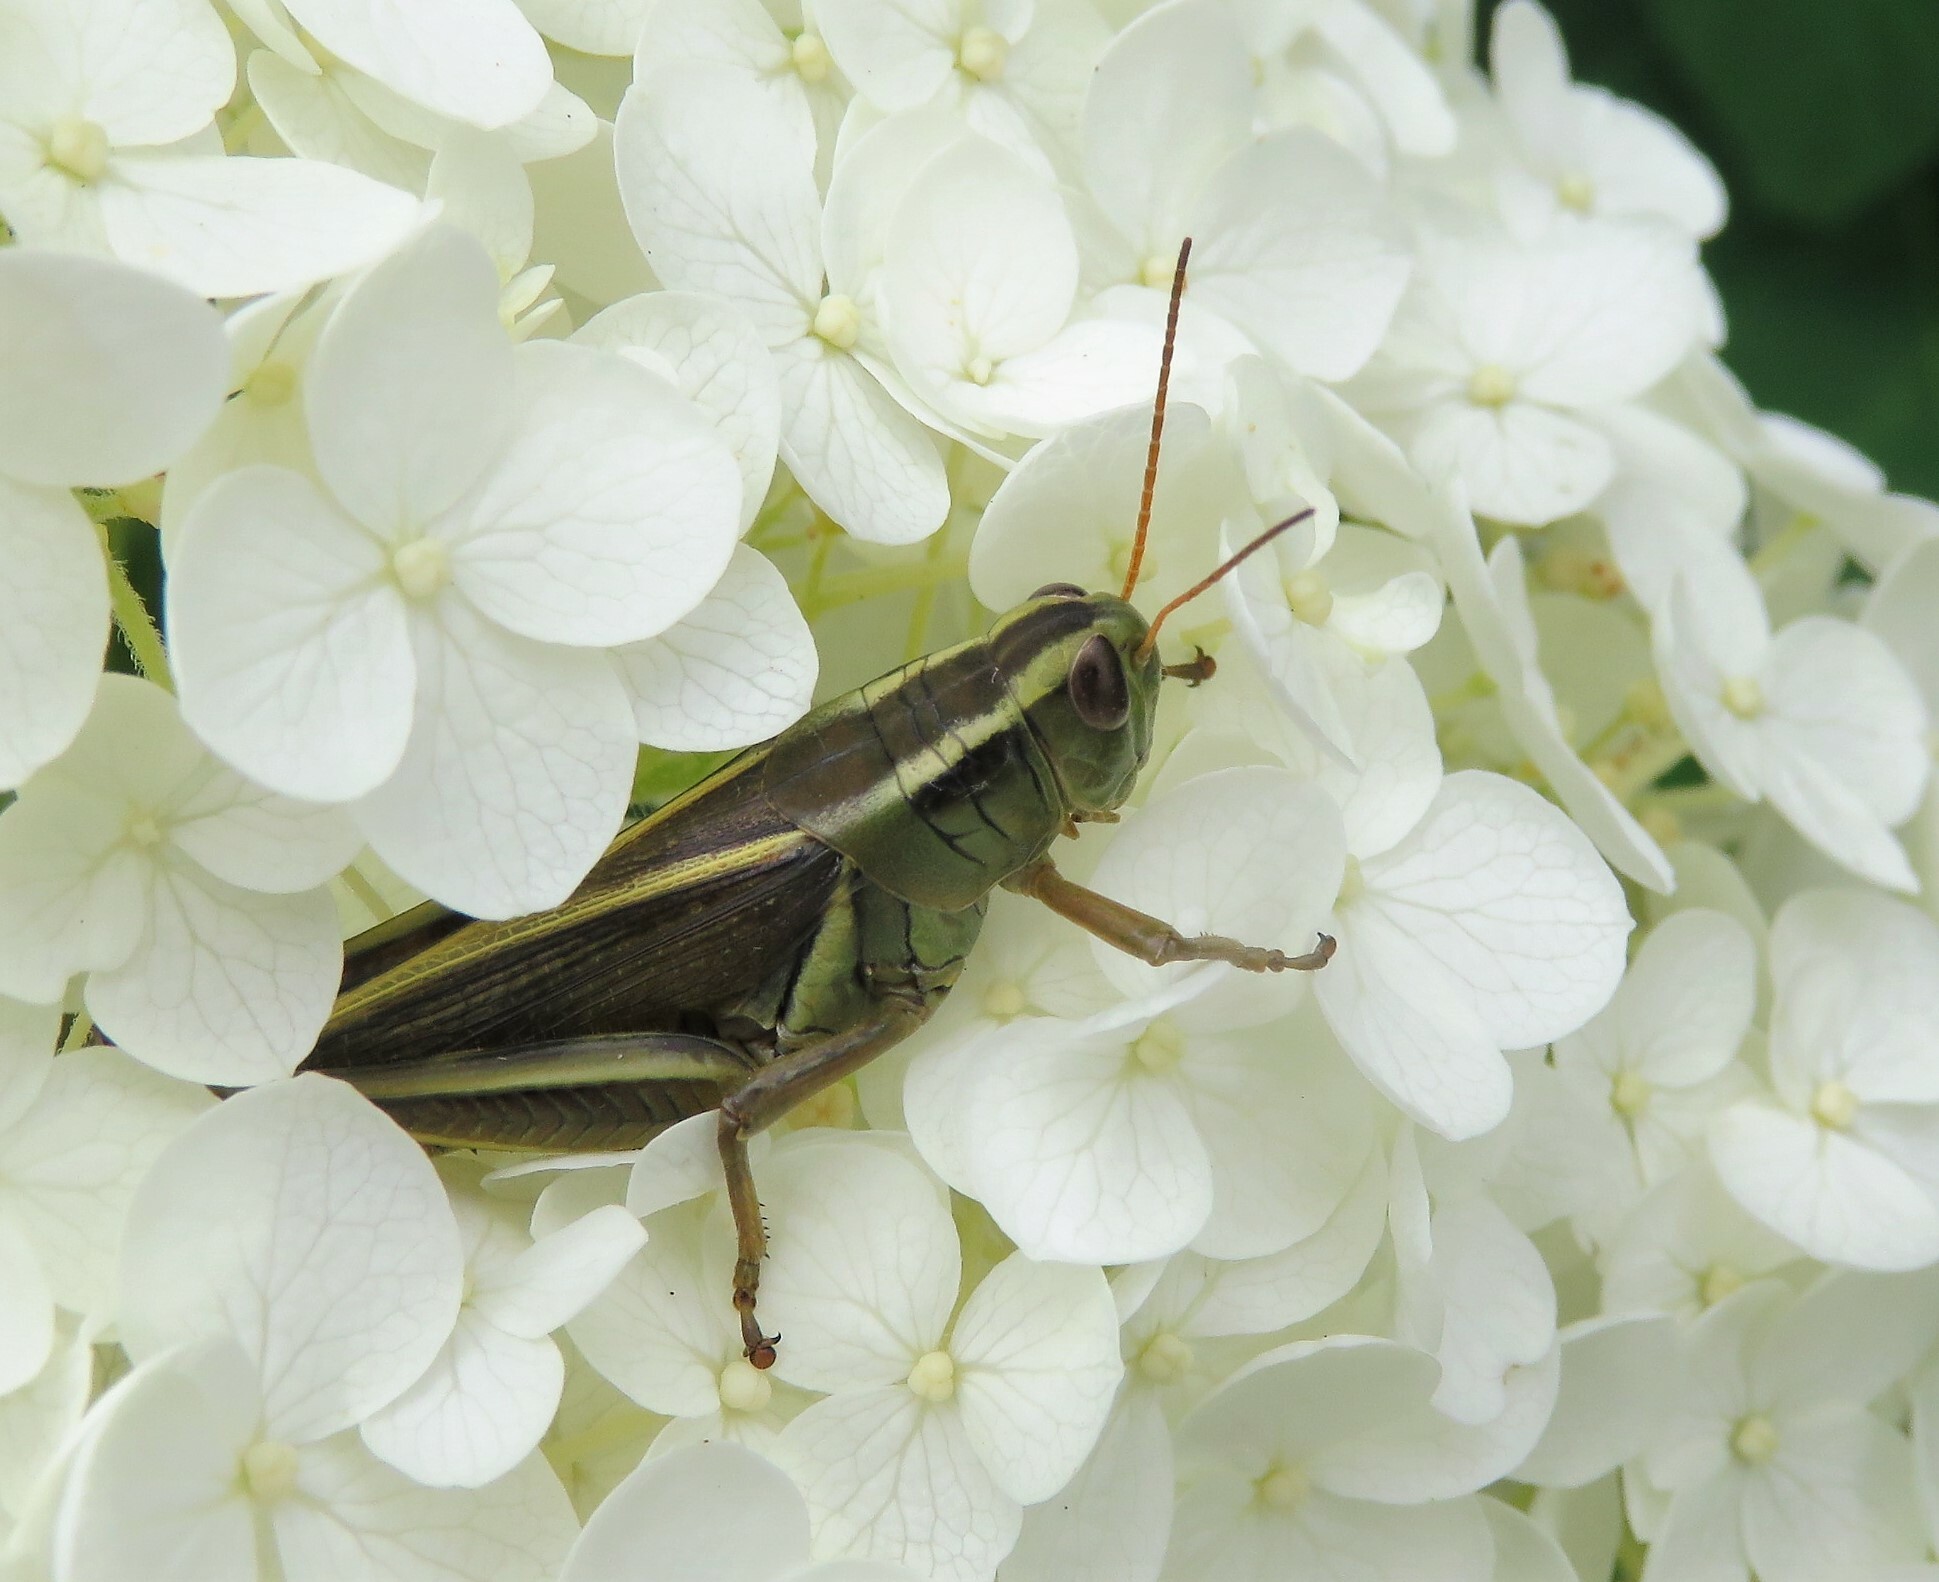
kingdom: Animalia
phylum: Arthropoda
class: Insecta
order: Orthoptera
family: Acrididae
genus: Melanoplus
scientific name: Melanoplus bivittatus
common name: Two-striped grasshopper
